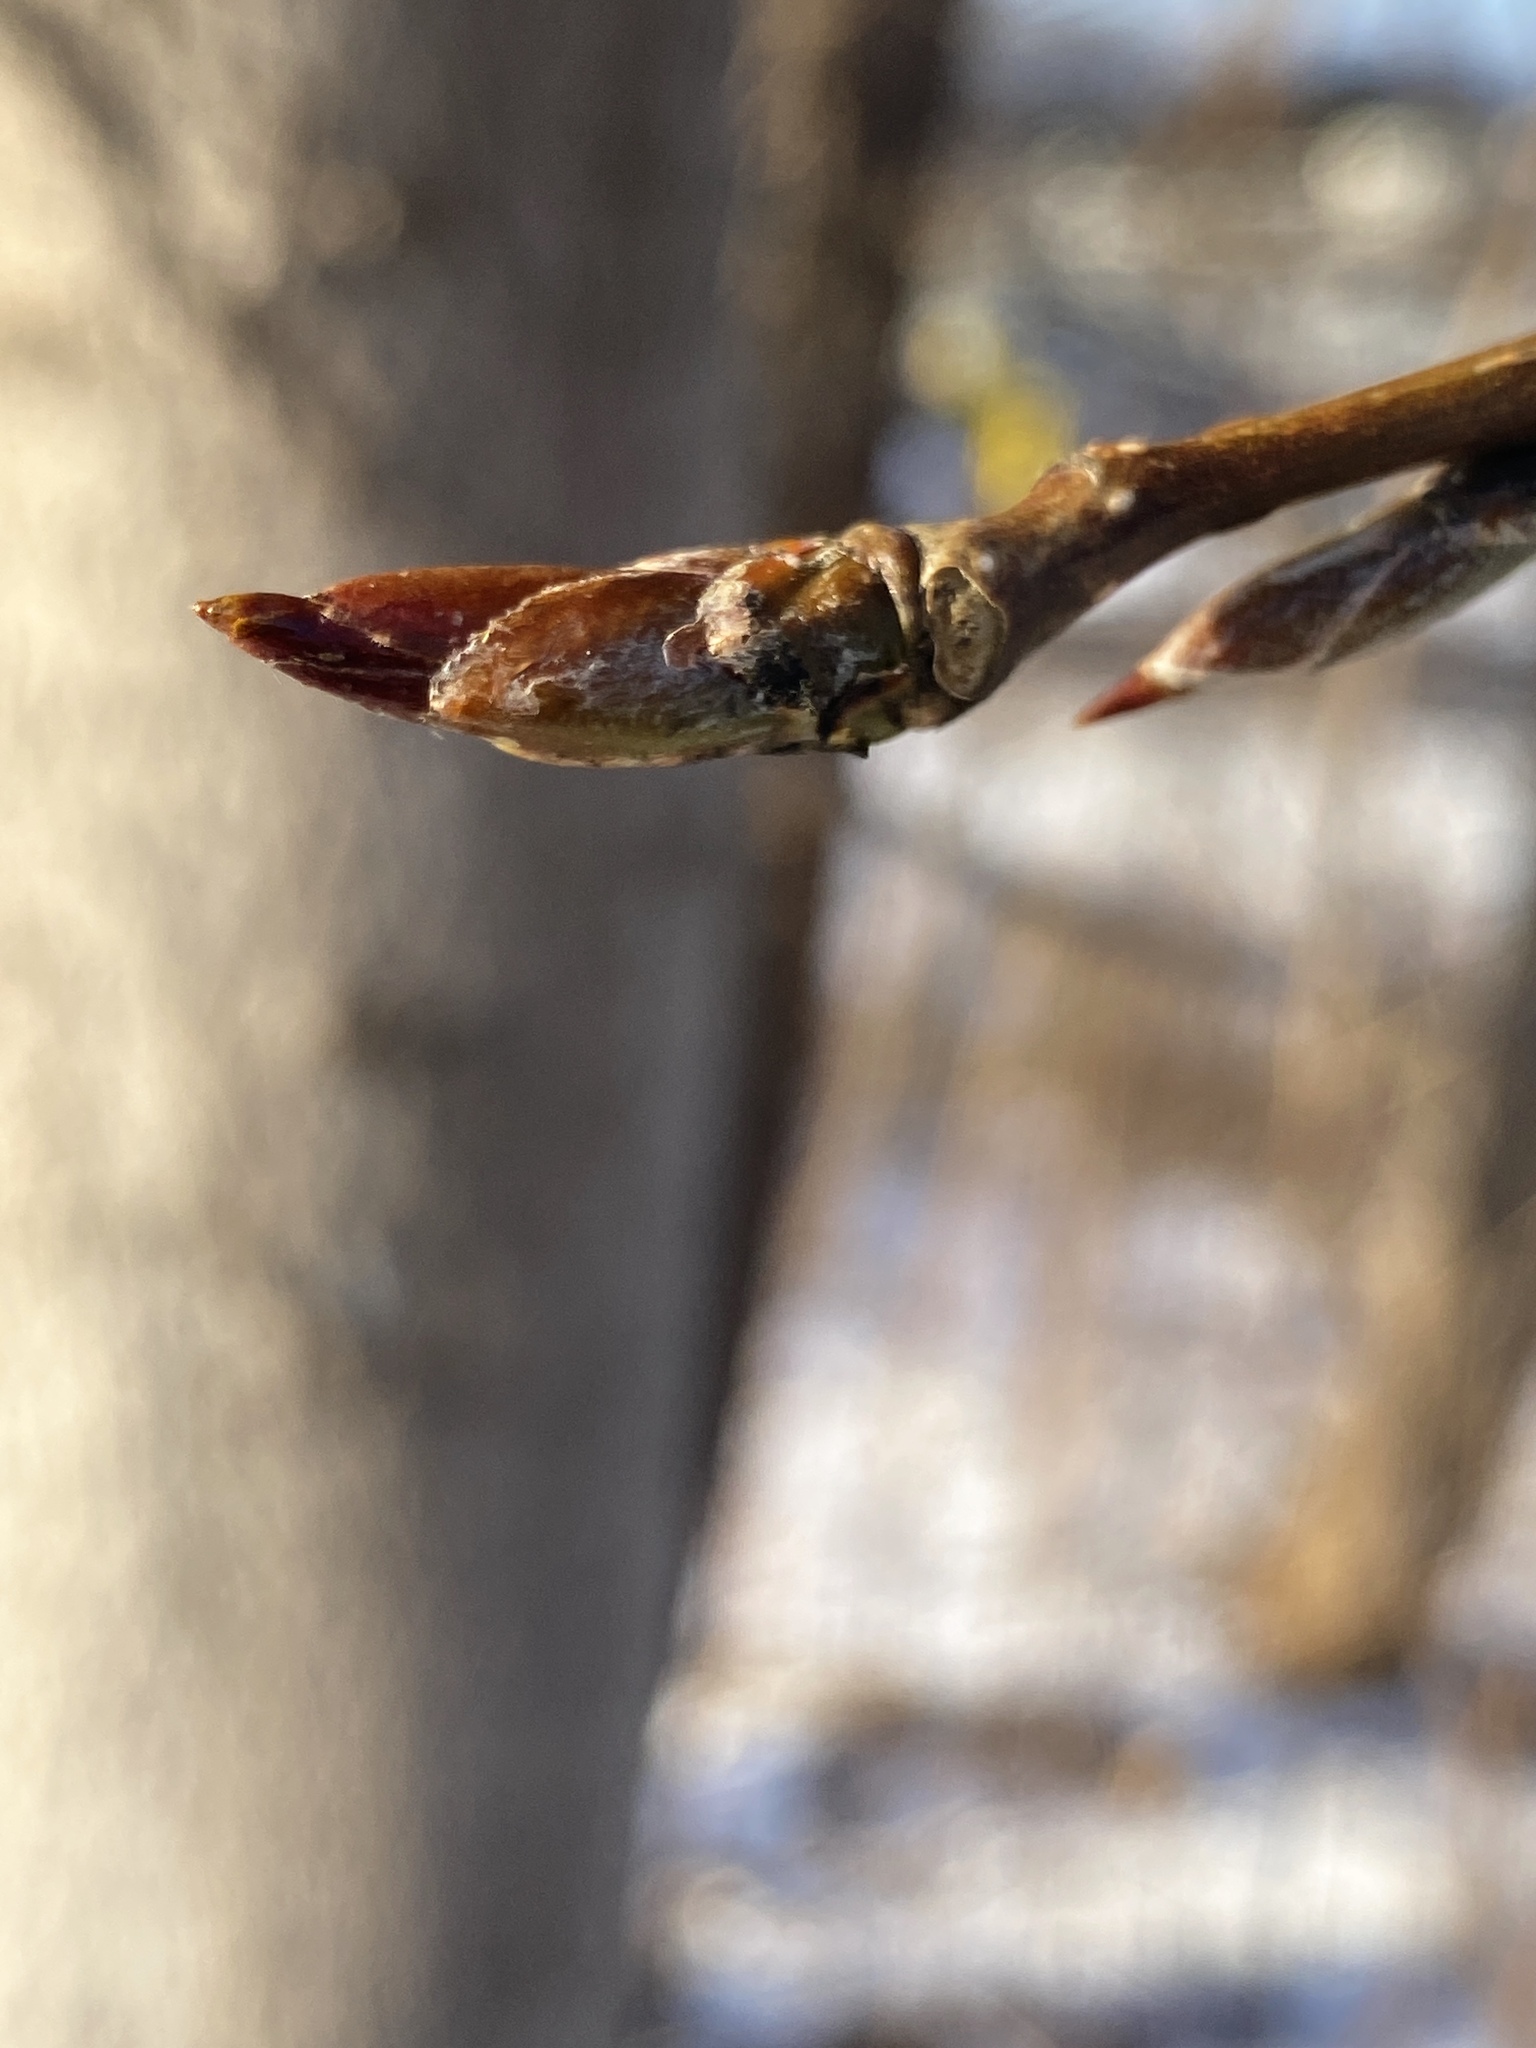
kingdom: Plantae
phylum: Tracheophyta
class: Magnoliopsida
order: Malpighiales
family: Salicaceae
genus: Populus
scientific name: Populus deltoides
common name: Eastern cottonwood
